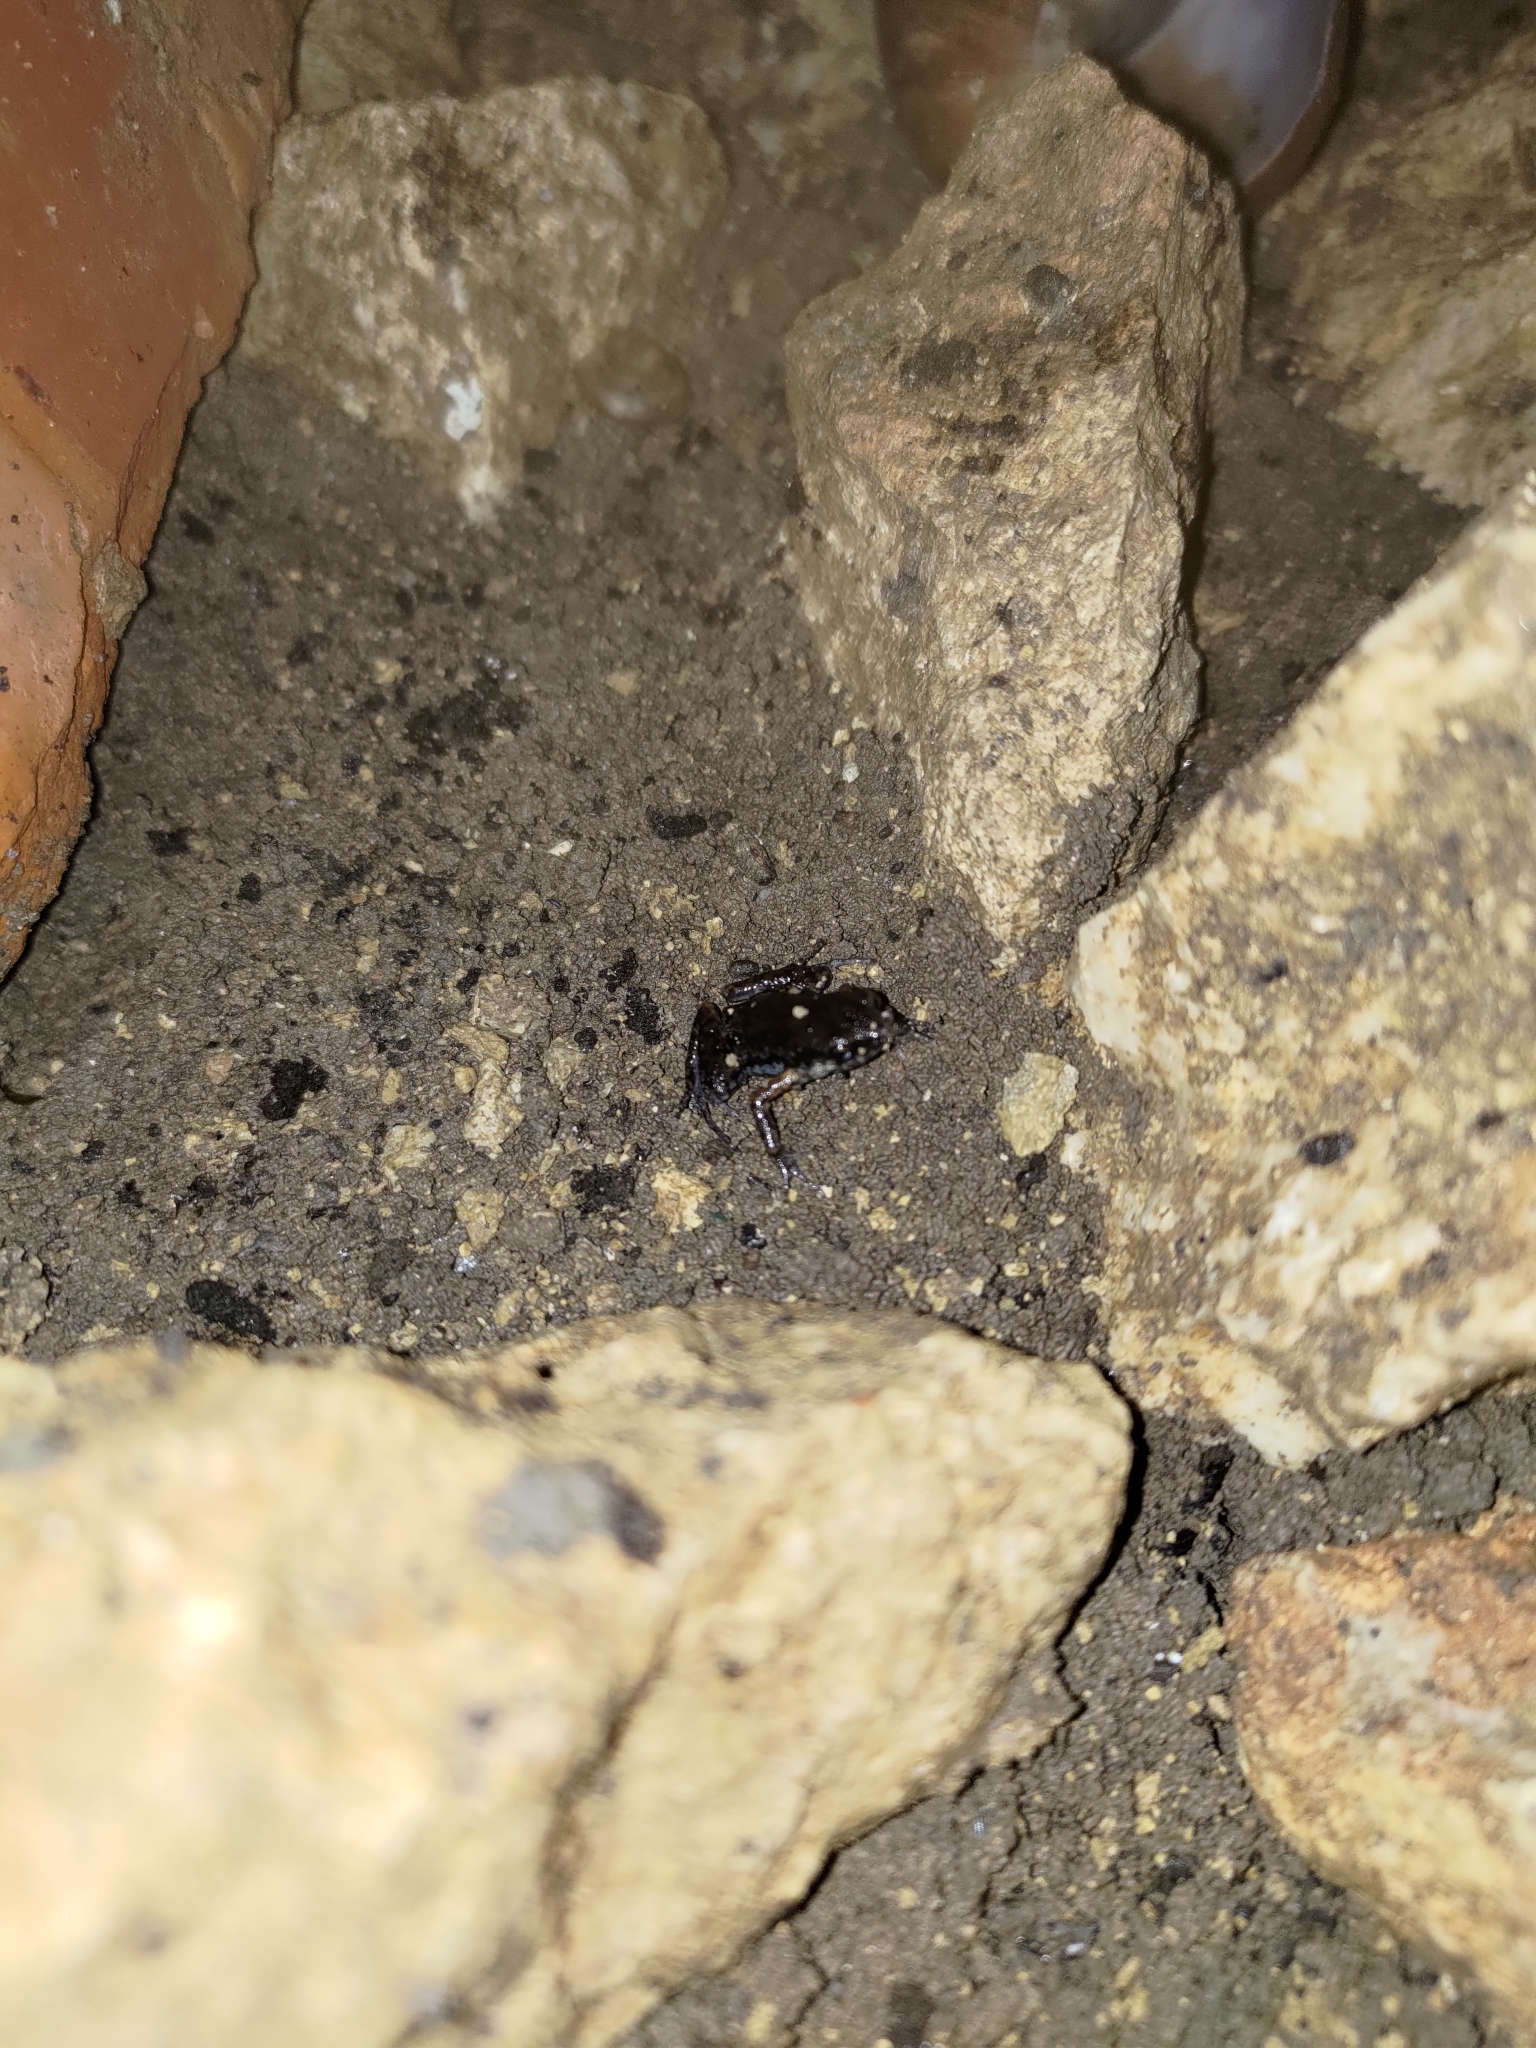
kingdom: Animalia
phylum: Chordata
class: Amphibia
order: Anura
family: Microhylidae
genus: Micryletta
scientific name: Micryletta steinegeri
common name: Stejneger's paddy frog
